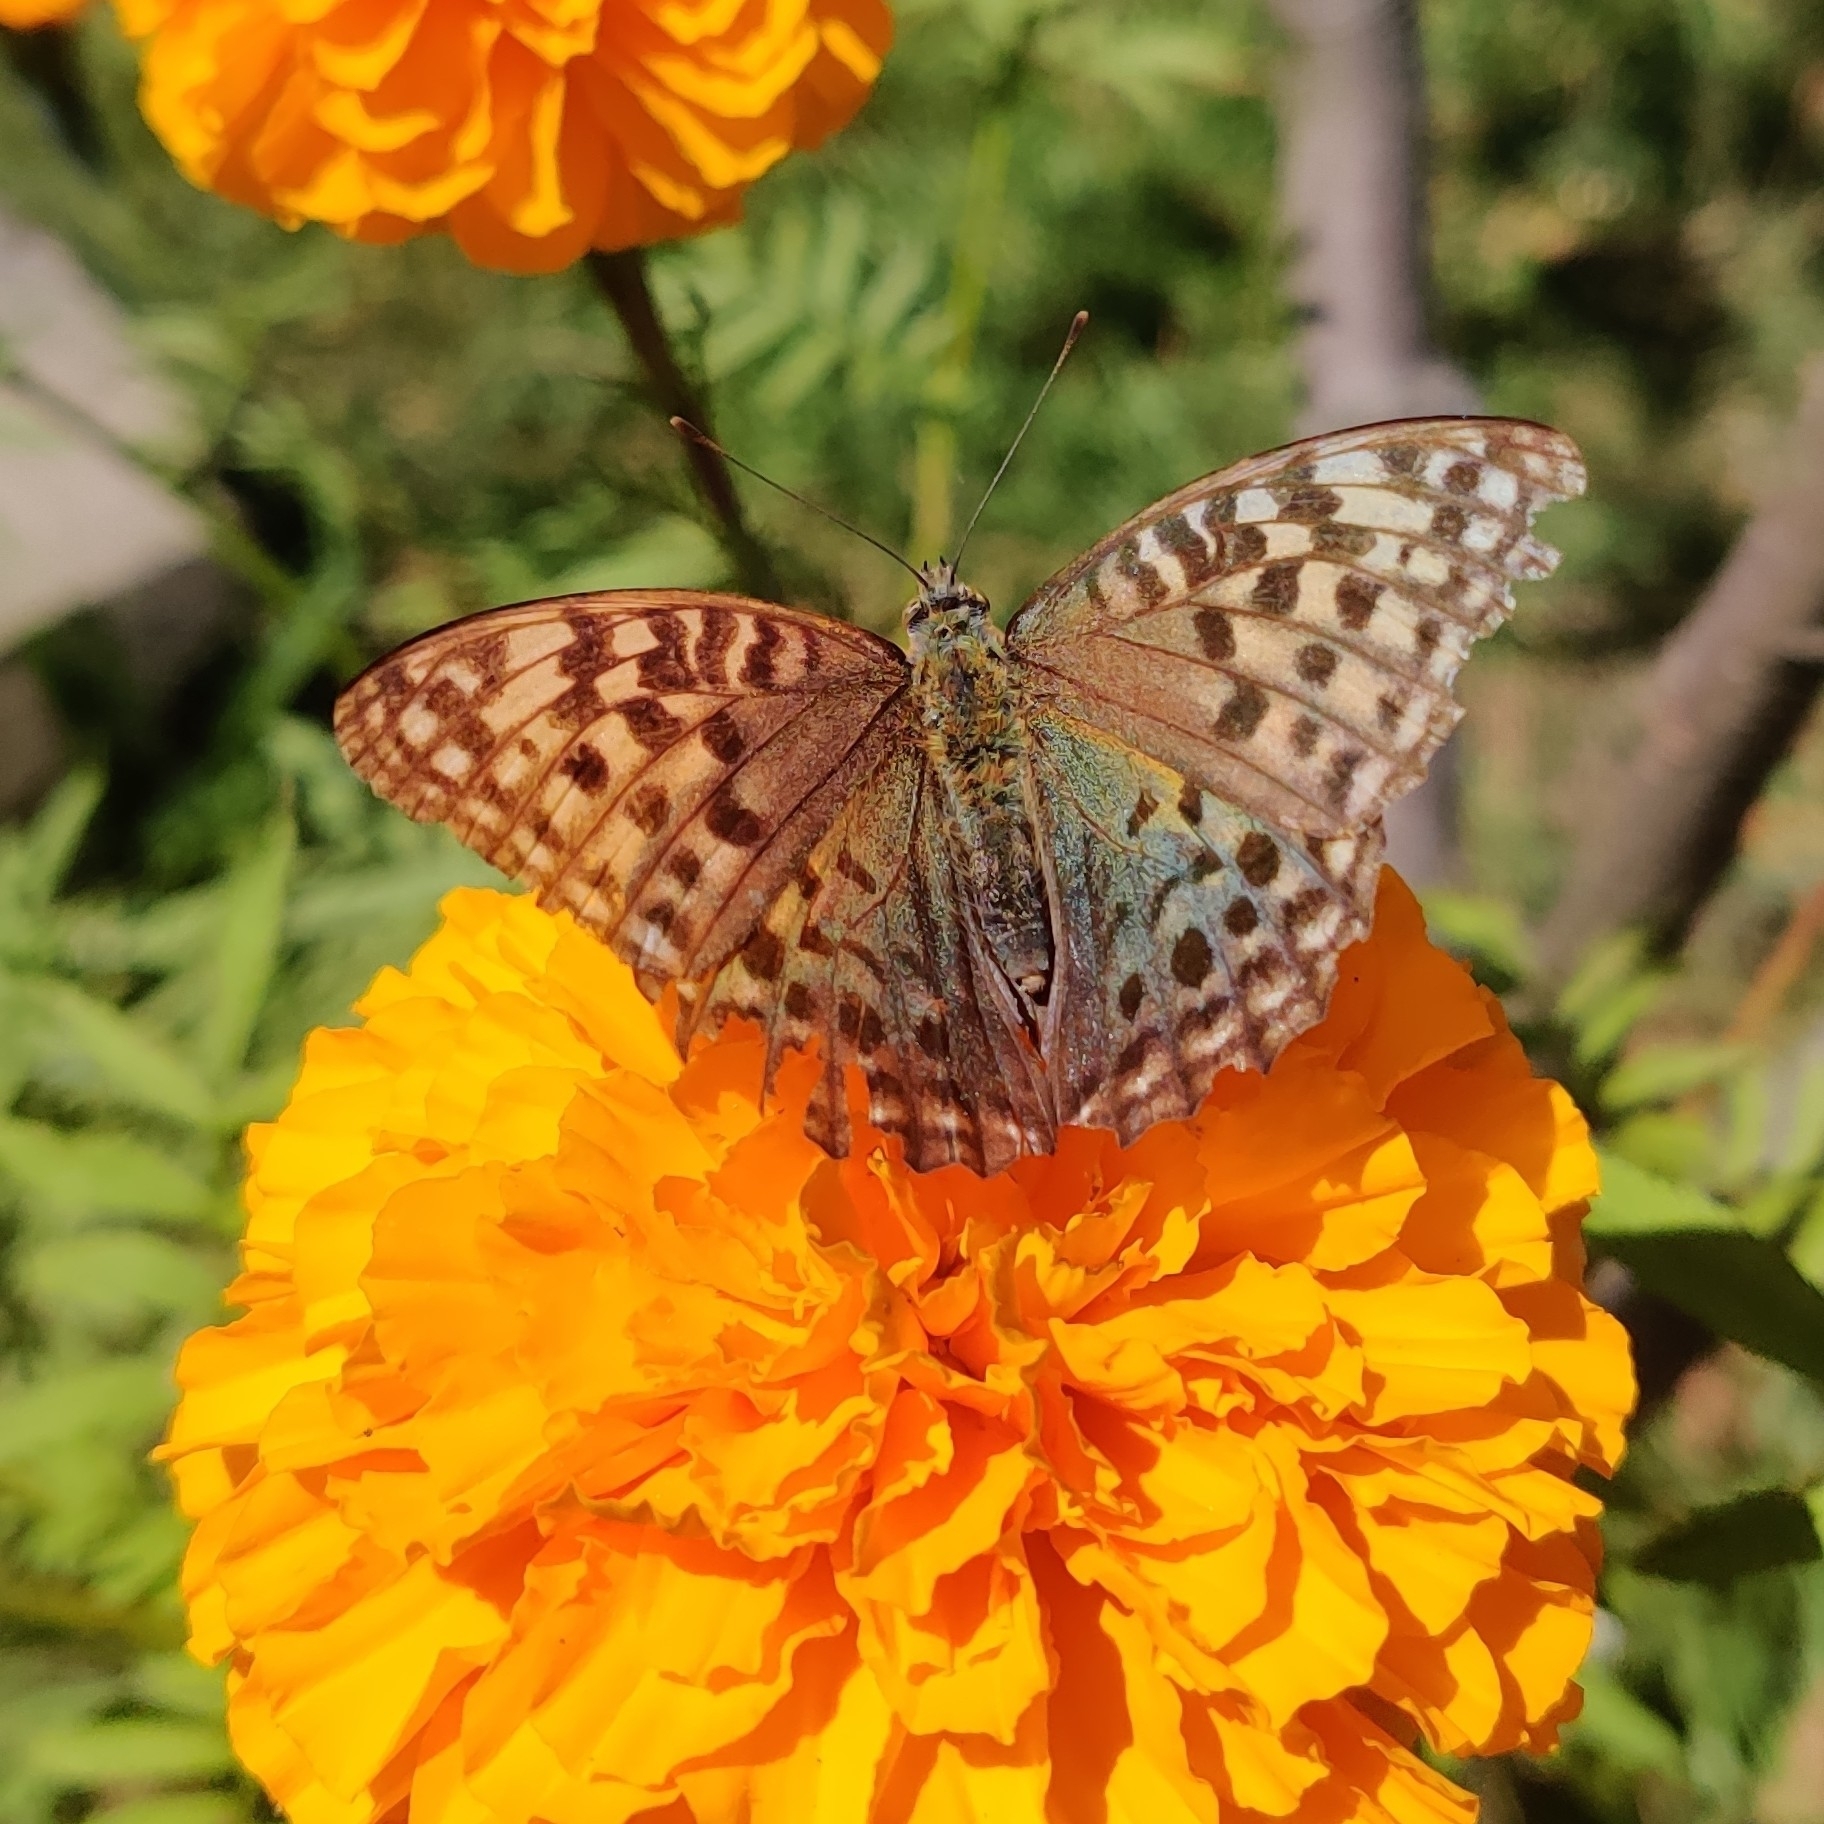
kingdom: Animalia
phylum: Arthropoda
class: Insecta
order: Lepidoptera
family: Nymphalidae
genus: Fabriciana
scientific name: Fabriciana kamala
